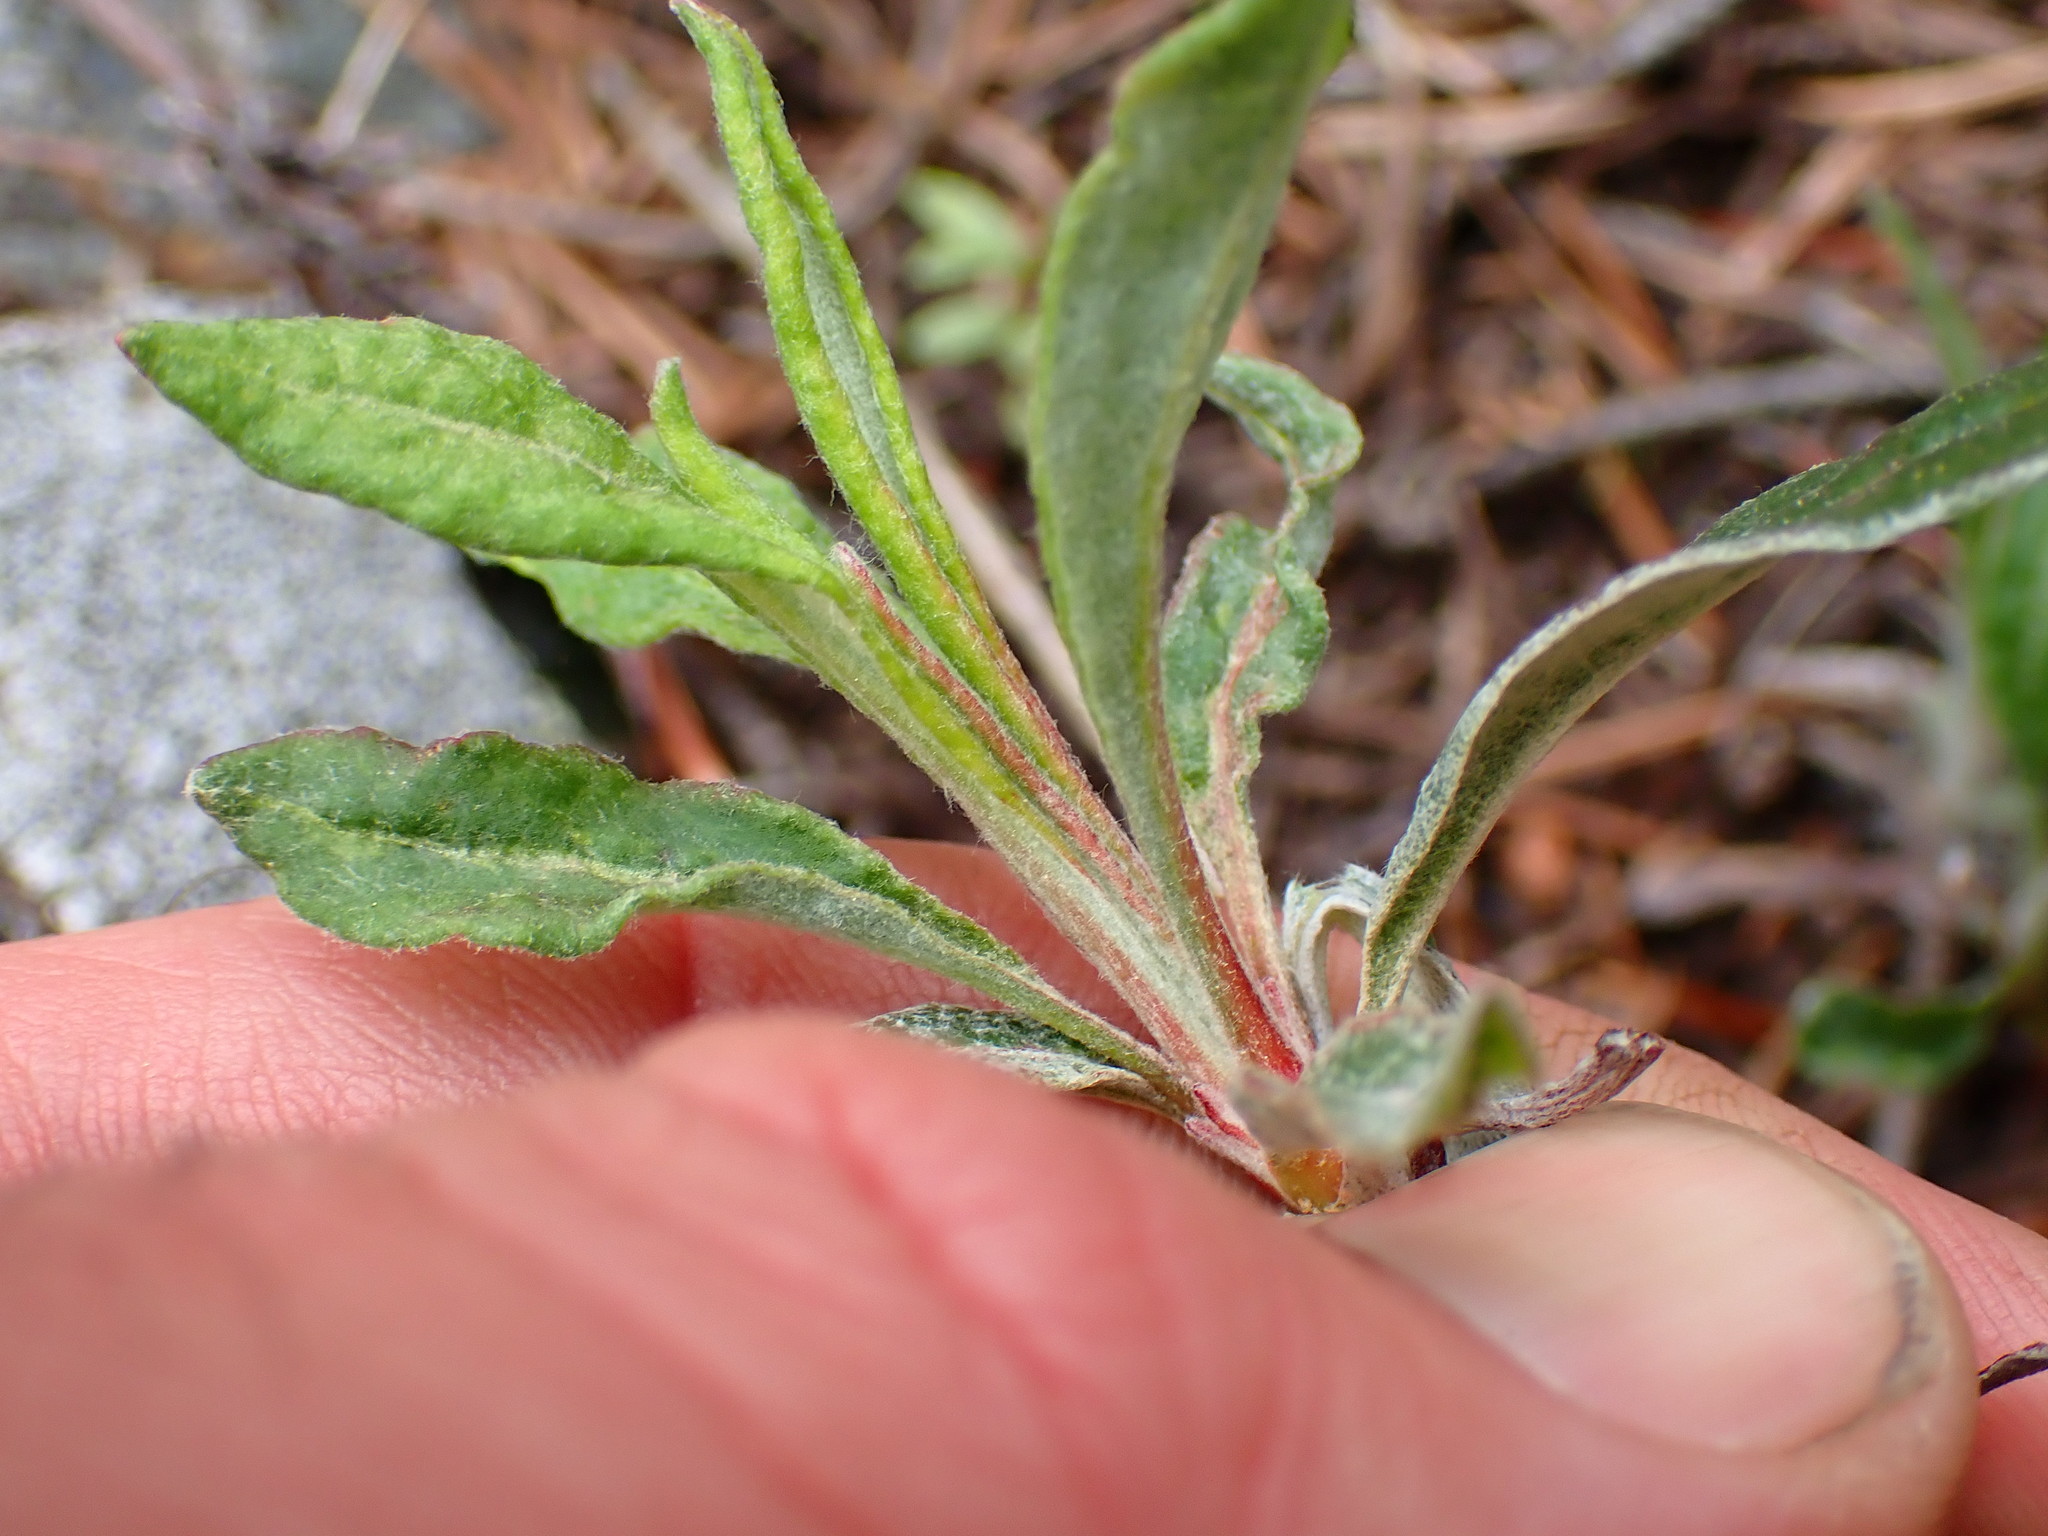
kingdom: Plantae
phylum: Tracheophyta
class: Magnoliopsida
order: Caryophyllales
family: Polygonaceae
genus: Eriogonum
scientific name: Eriogonum heracleoides
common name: Wyeth's buckwheat
